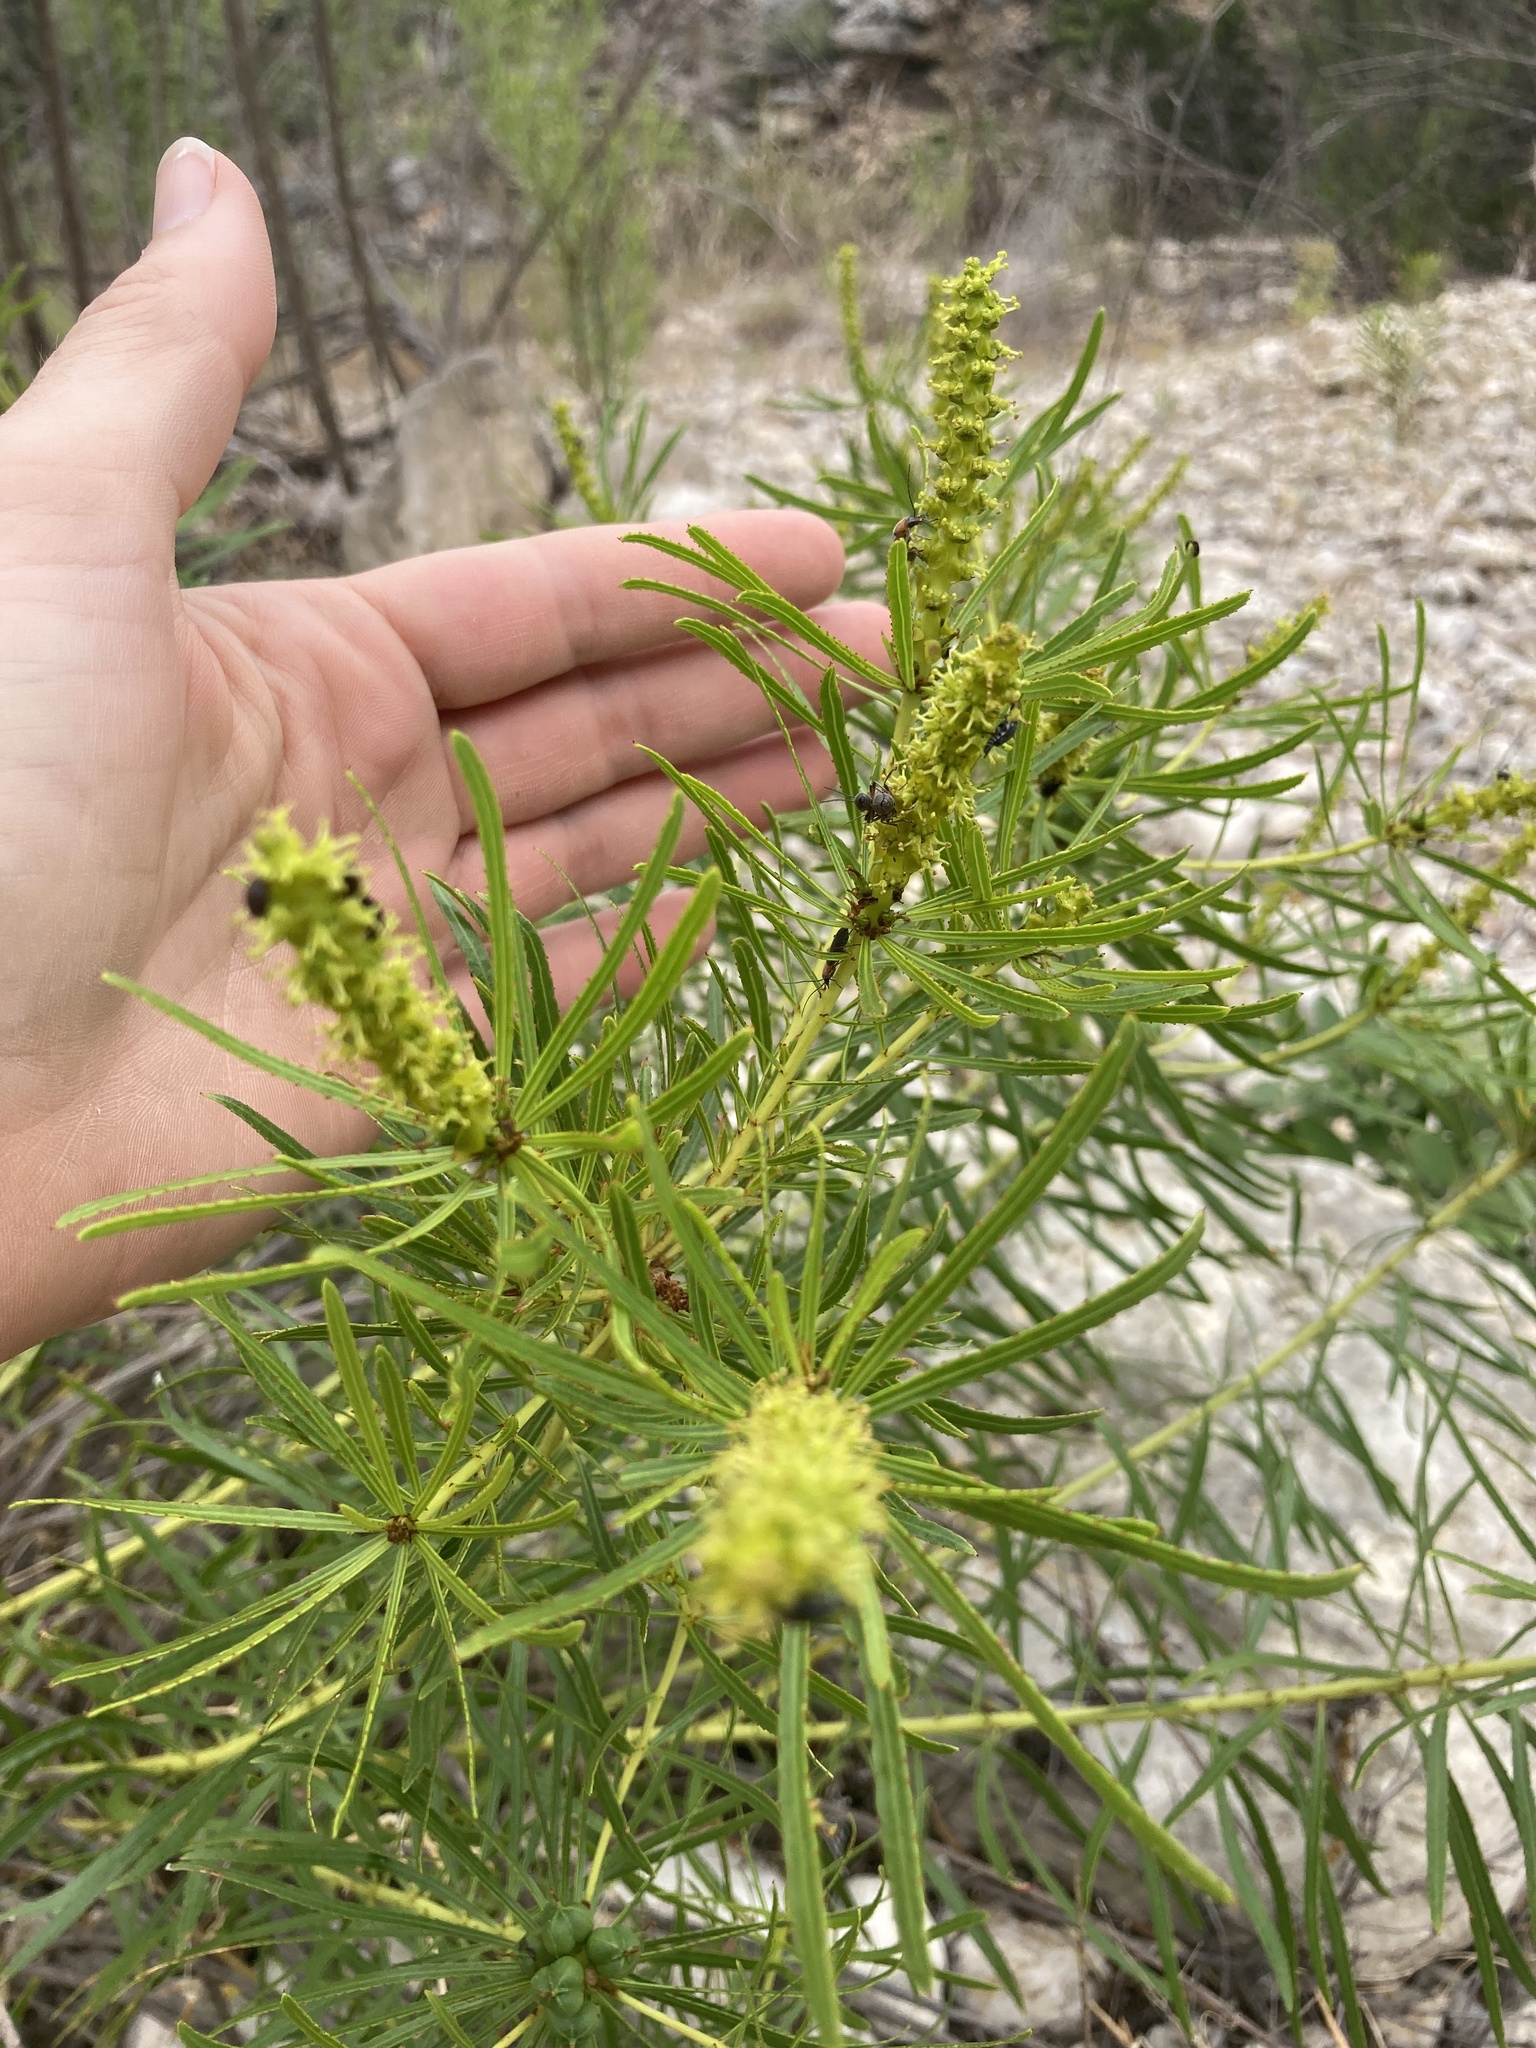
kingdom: Plantae
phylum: Tracheophyta
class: Magnoliopsida
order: Malpighiales
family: Euphorbiaceae
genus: Stillingia
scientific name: Stillingia texana
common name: Texas stillingia
